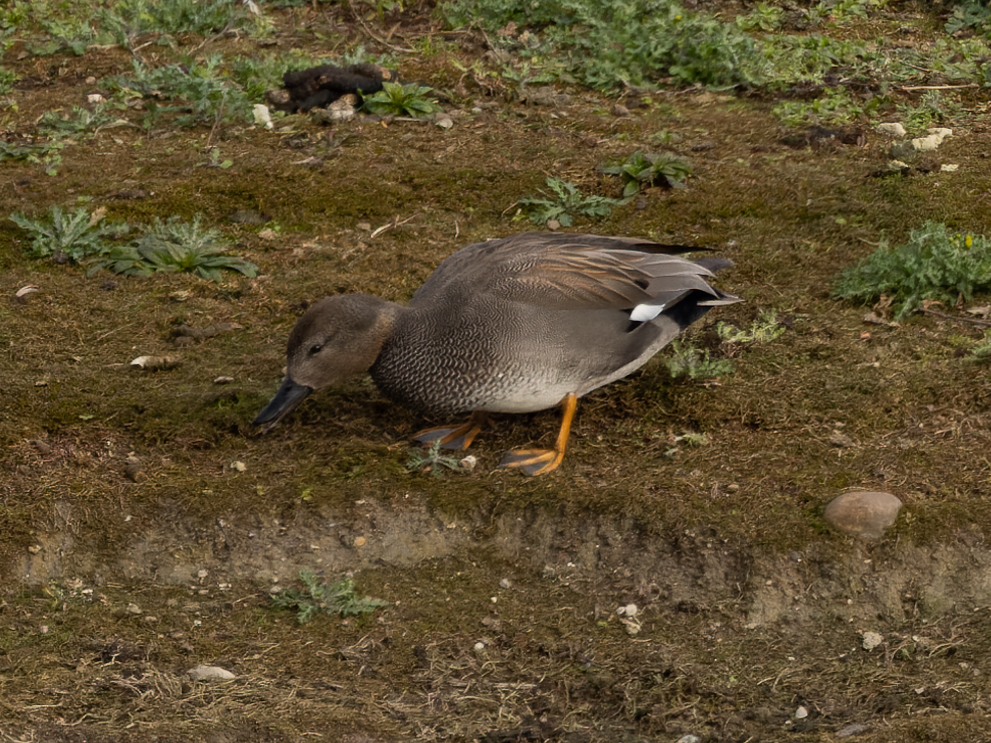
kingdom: Animalia
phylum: Chordata
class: Aves
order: Anseriformes
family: Anatidae
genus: Mareca
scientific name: Mareca strepera
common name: Gadwall
